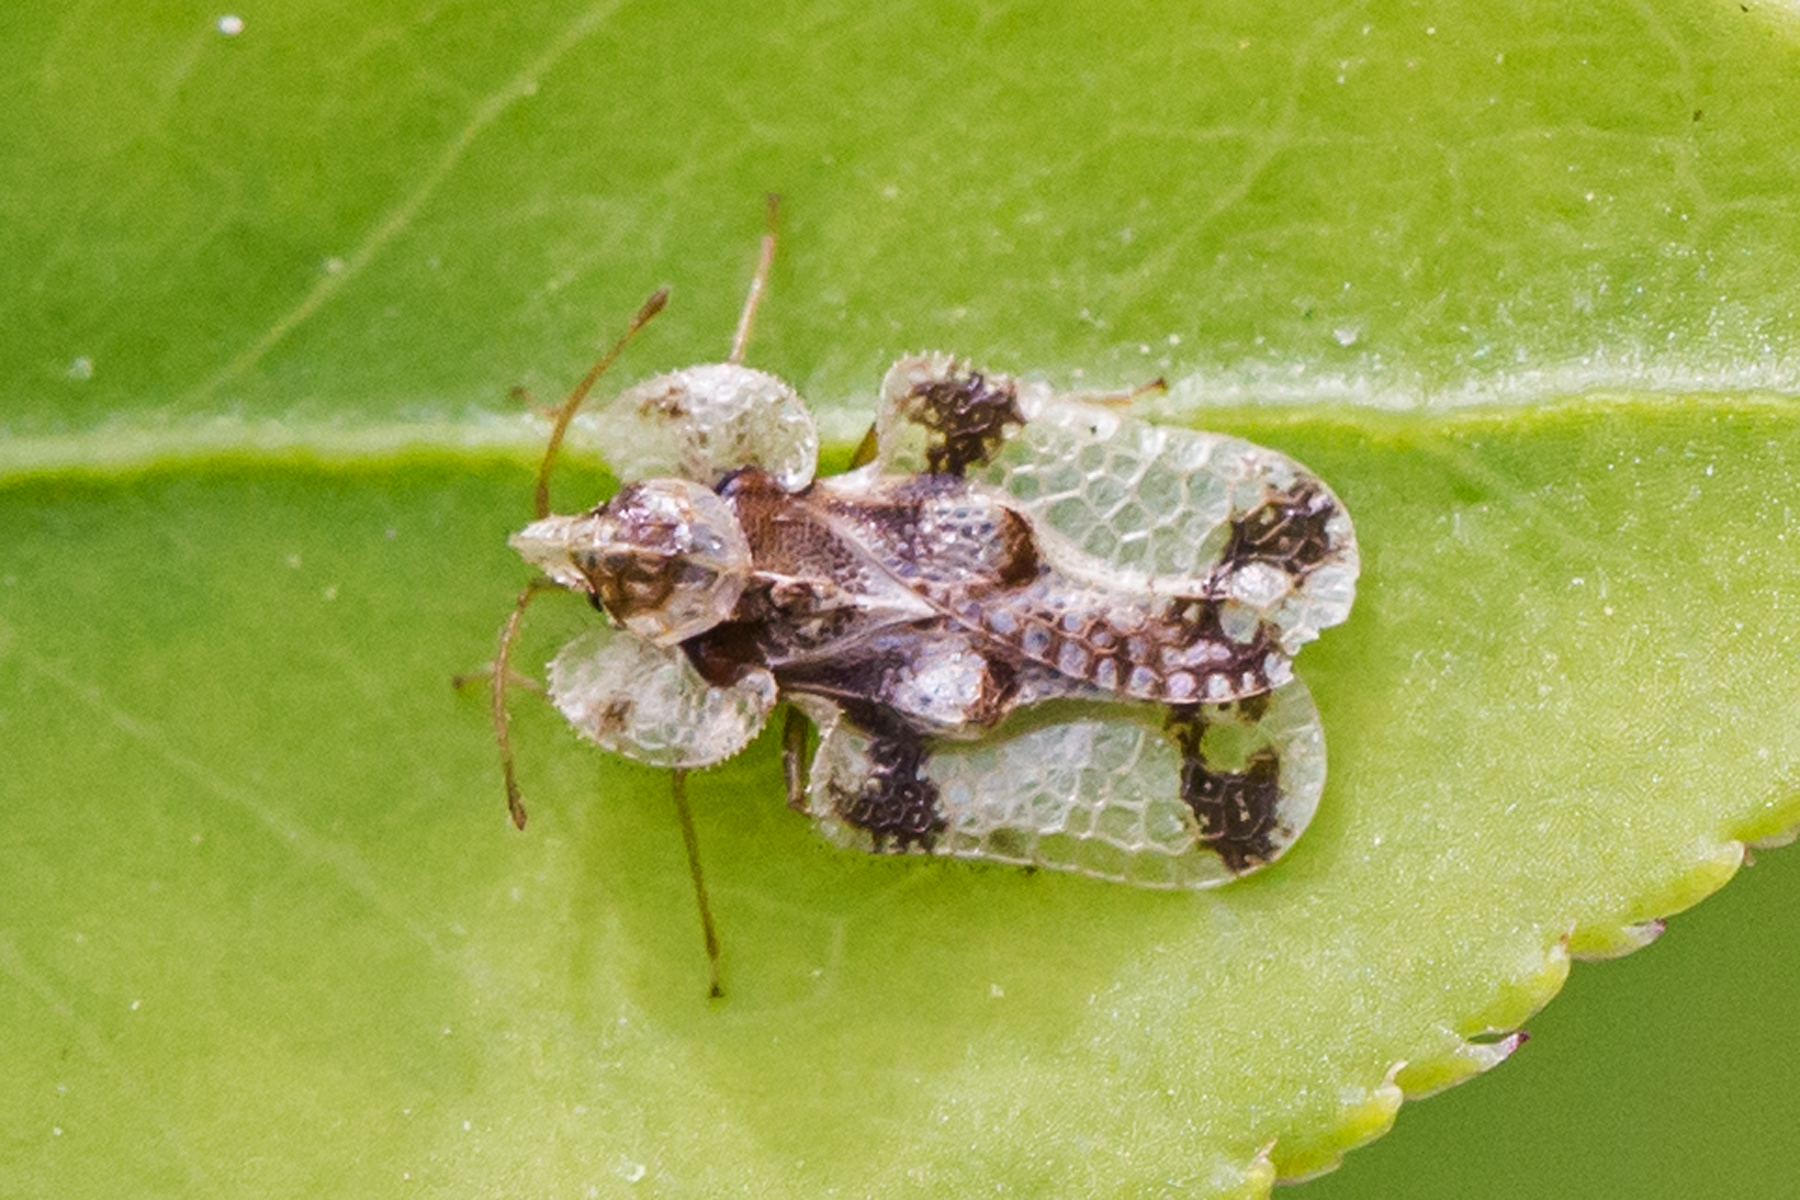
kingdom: Animalia
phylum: Arthropoda
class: Insecta
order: Hemiptera
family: Tingidae
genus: Corythucha
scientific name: Corythucha juglandis
